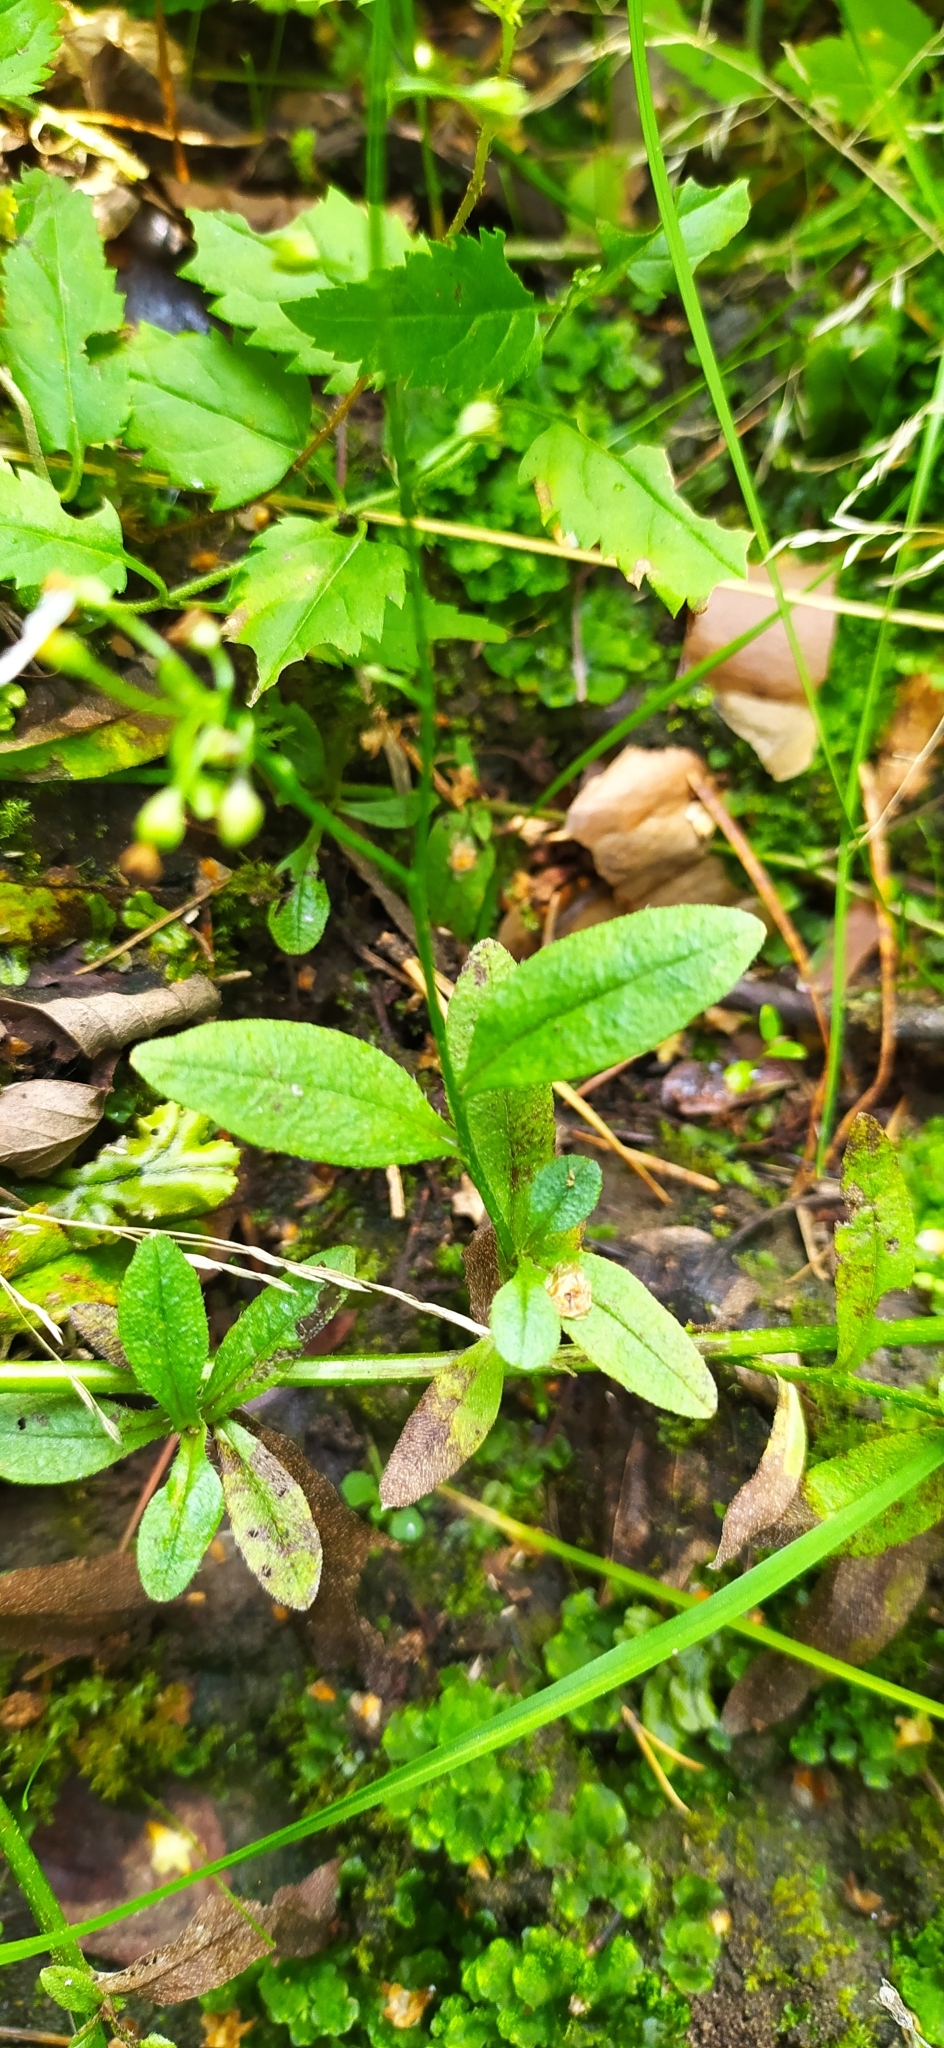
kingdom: Plantae
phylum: Tracheophyta
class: Magnoliopsida
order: Boraginales
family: Boraginaceae
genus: Myosotis
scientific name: Myosotis scorpioides
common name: Water forget-me-not
